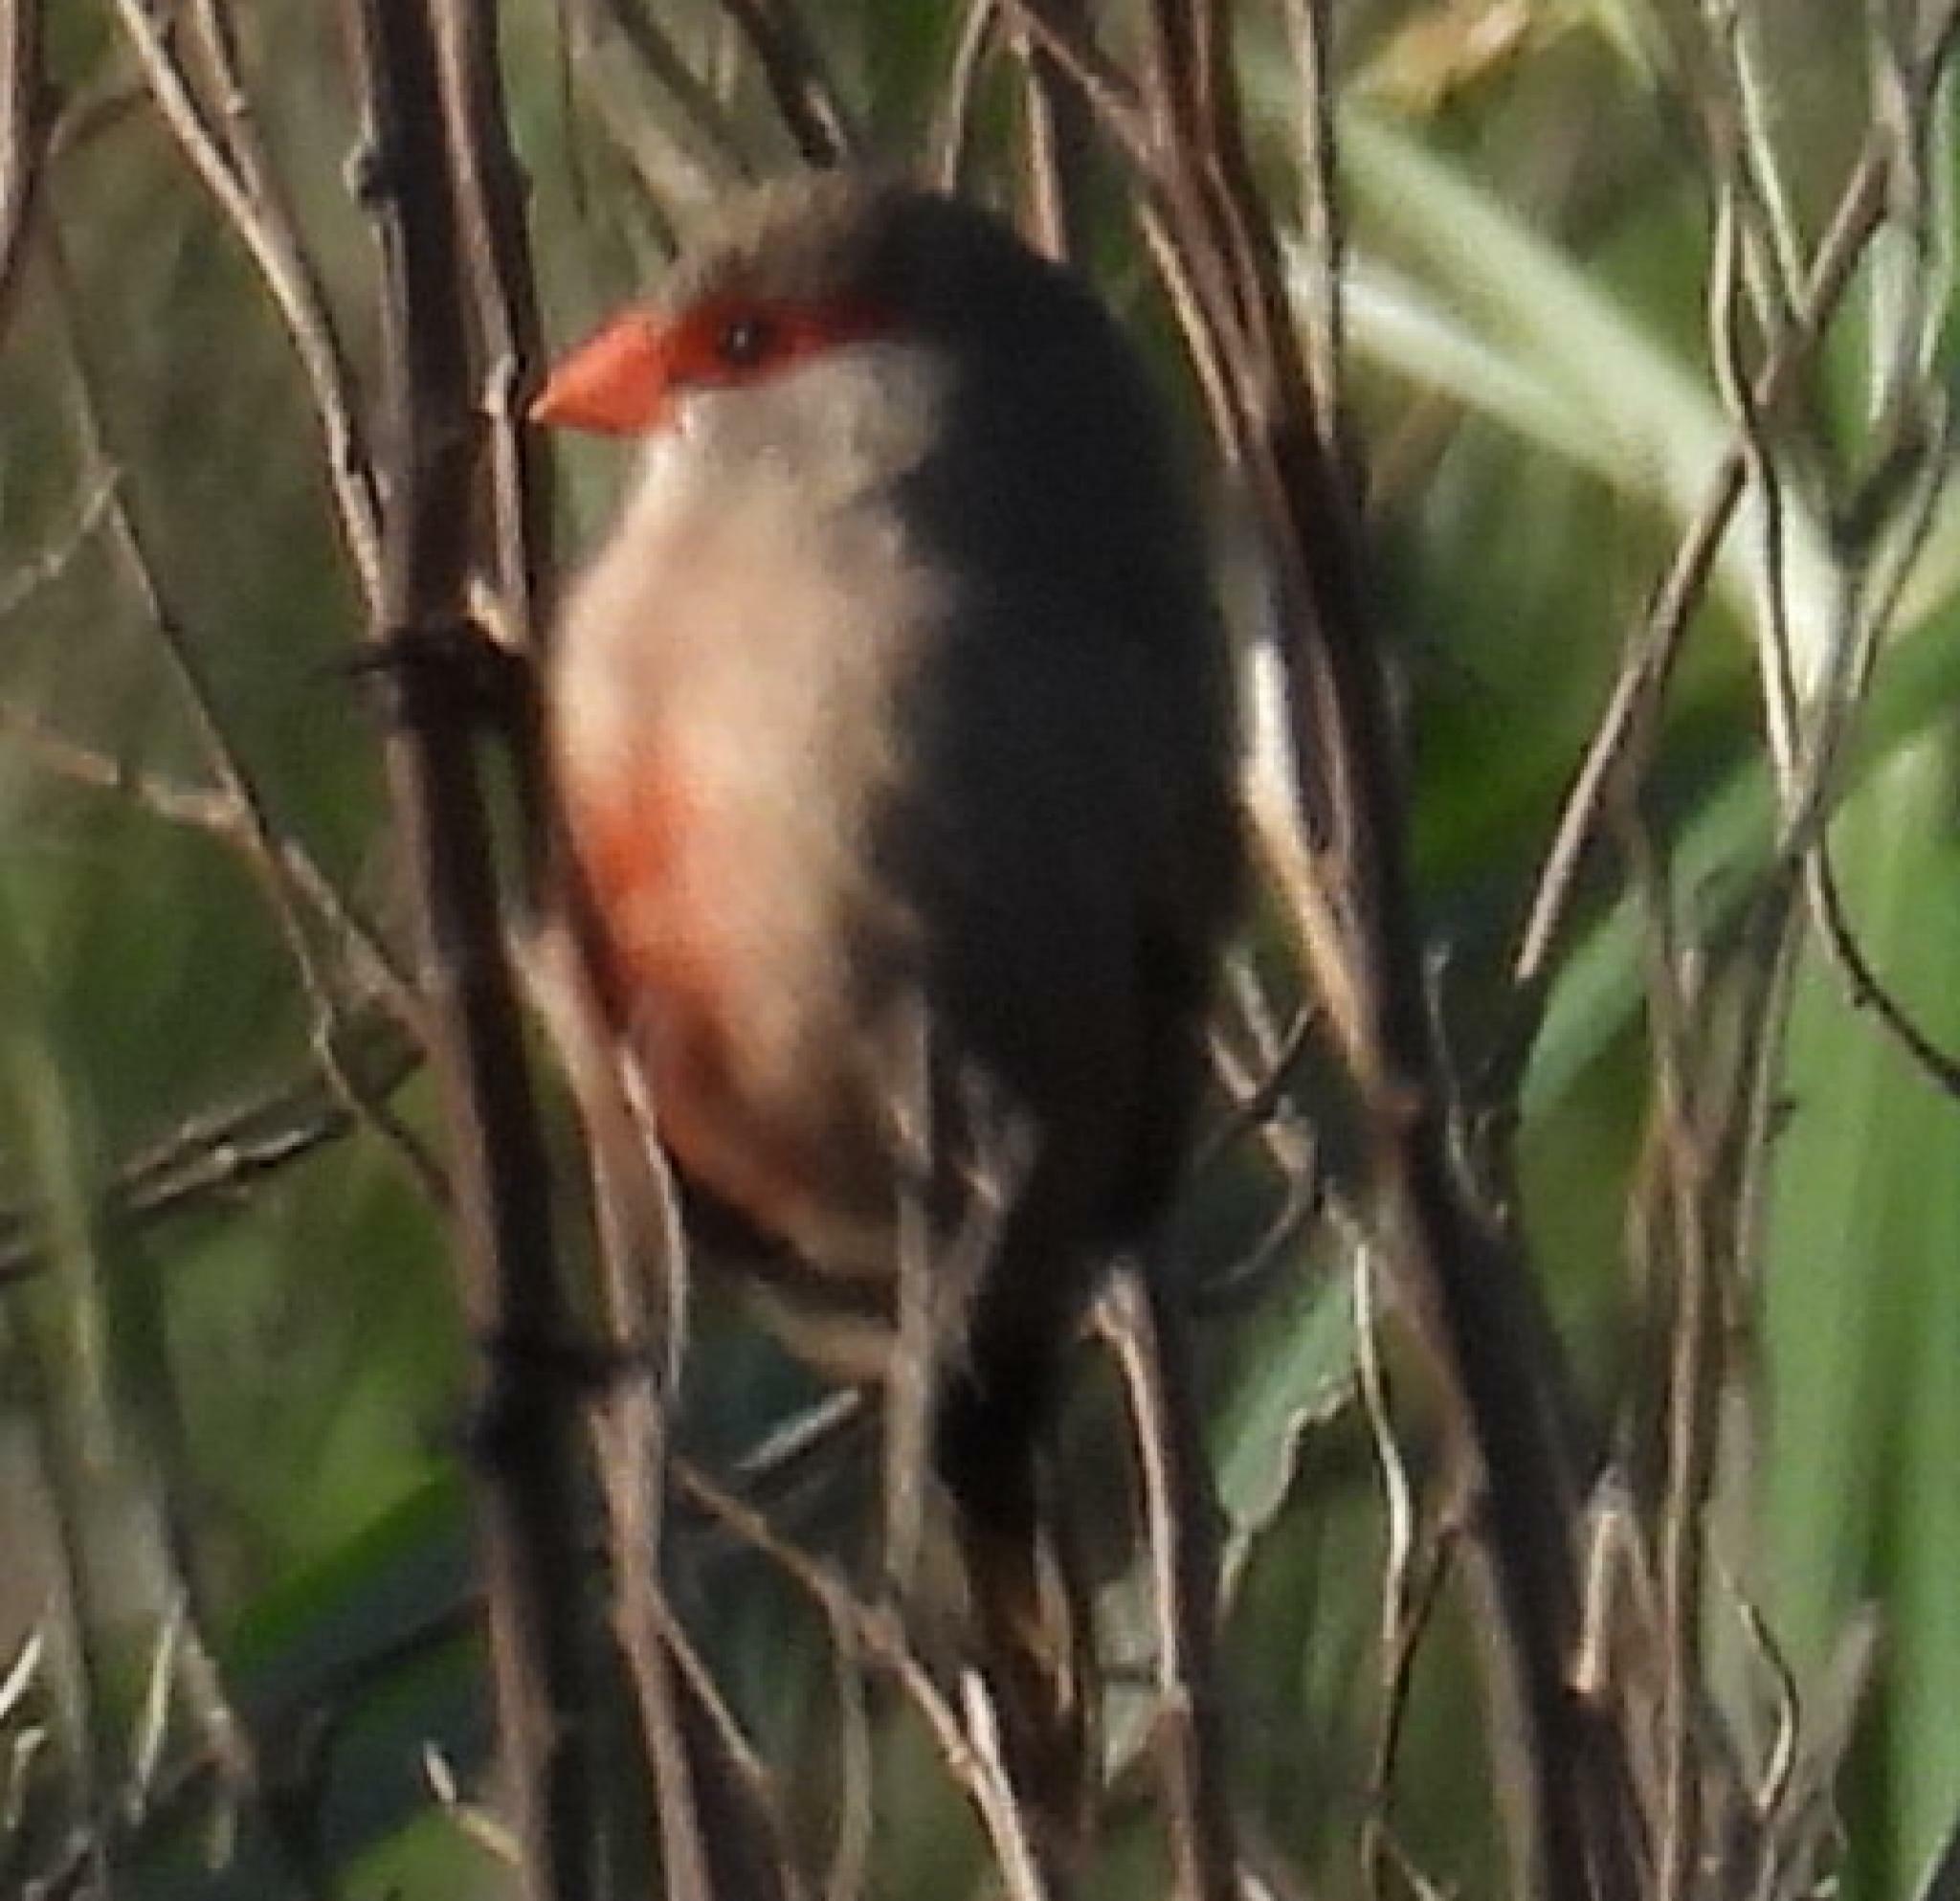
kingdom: Animalia
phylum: Chordata
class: Aves
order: Passeriformes
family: Estrildidae
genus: Estrilda
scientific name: Estrilda astrild
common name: Common waxbill
